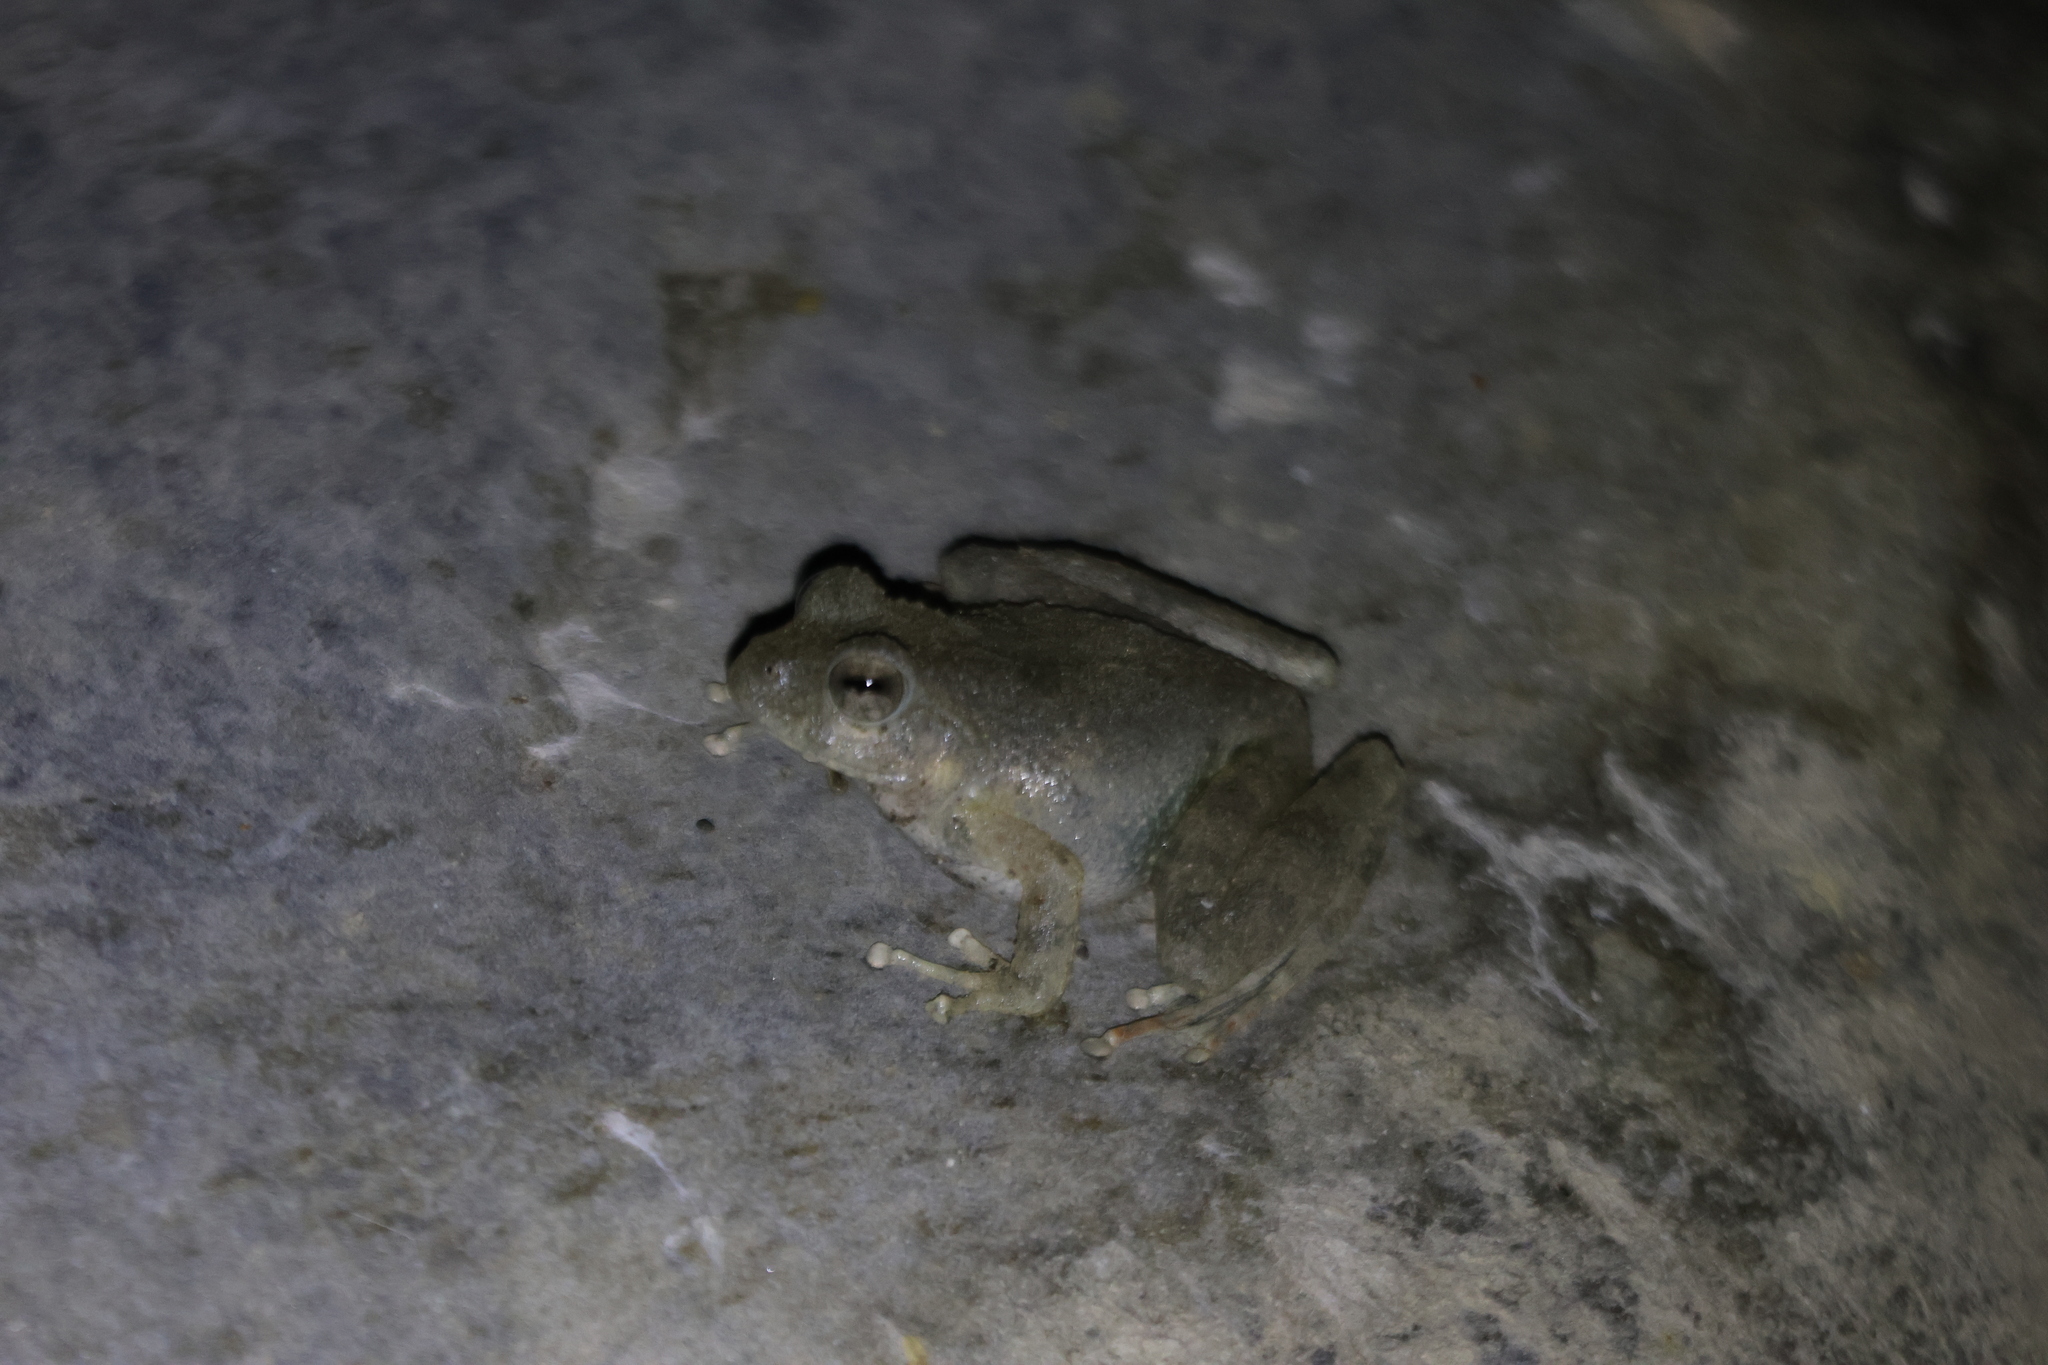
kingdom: Animalia
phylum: Chordata
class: Amphibia
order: Anura
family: Rhacophoridae
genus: Buergeria
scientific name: Buergeria otai
